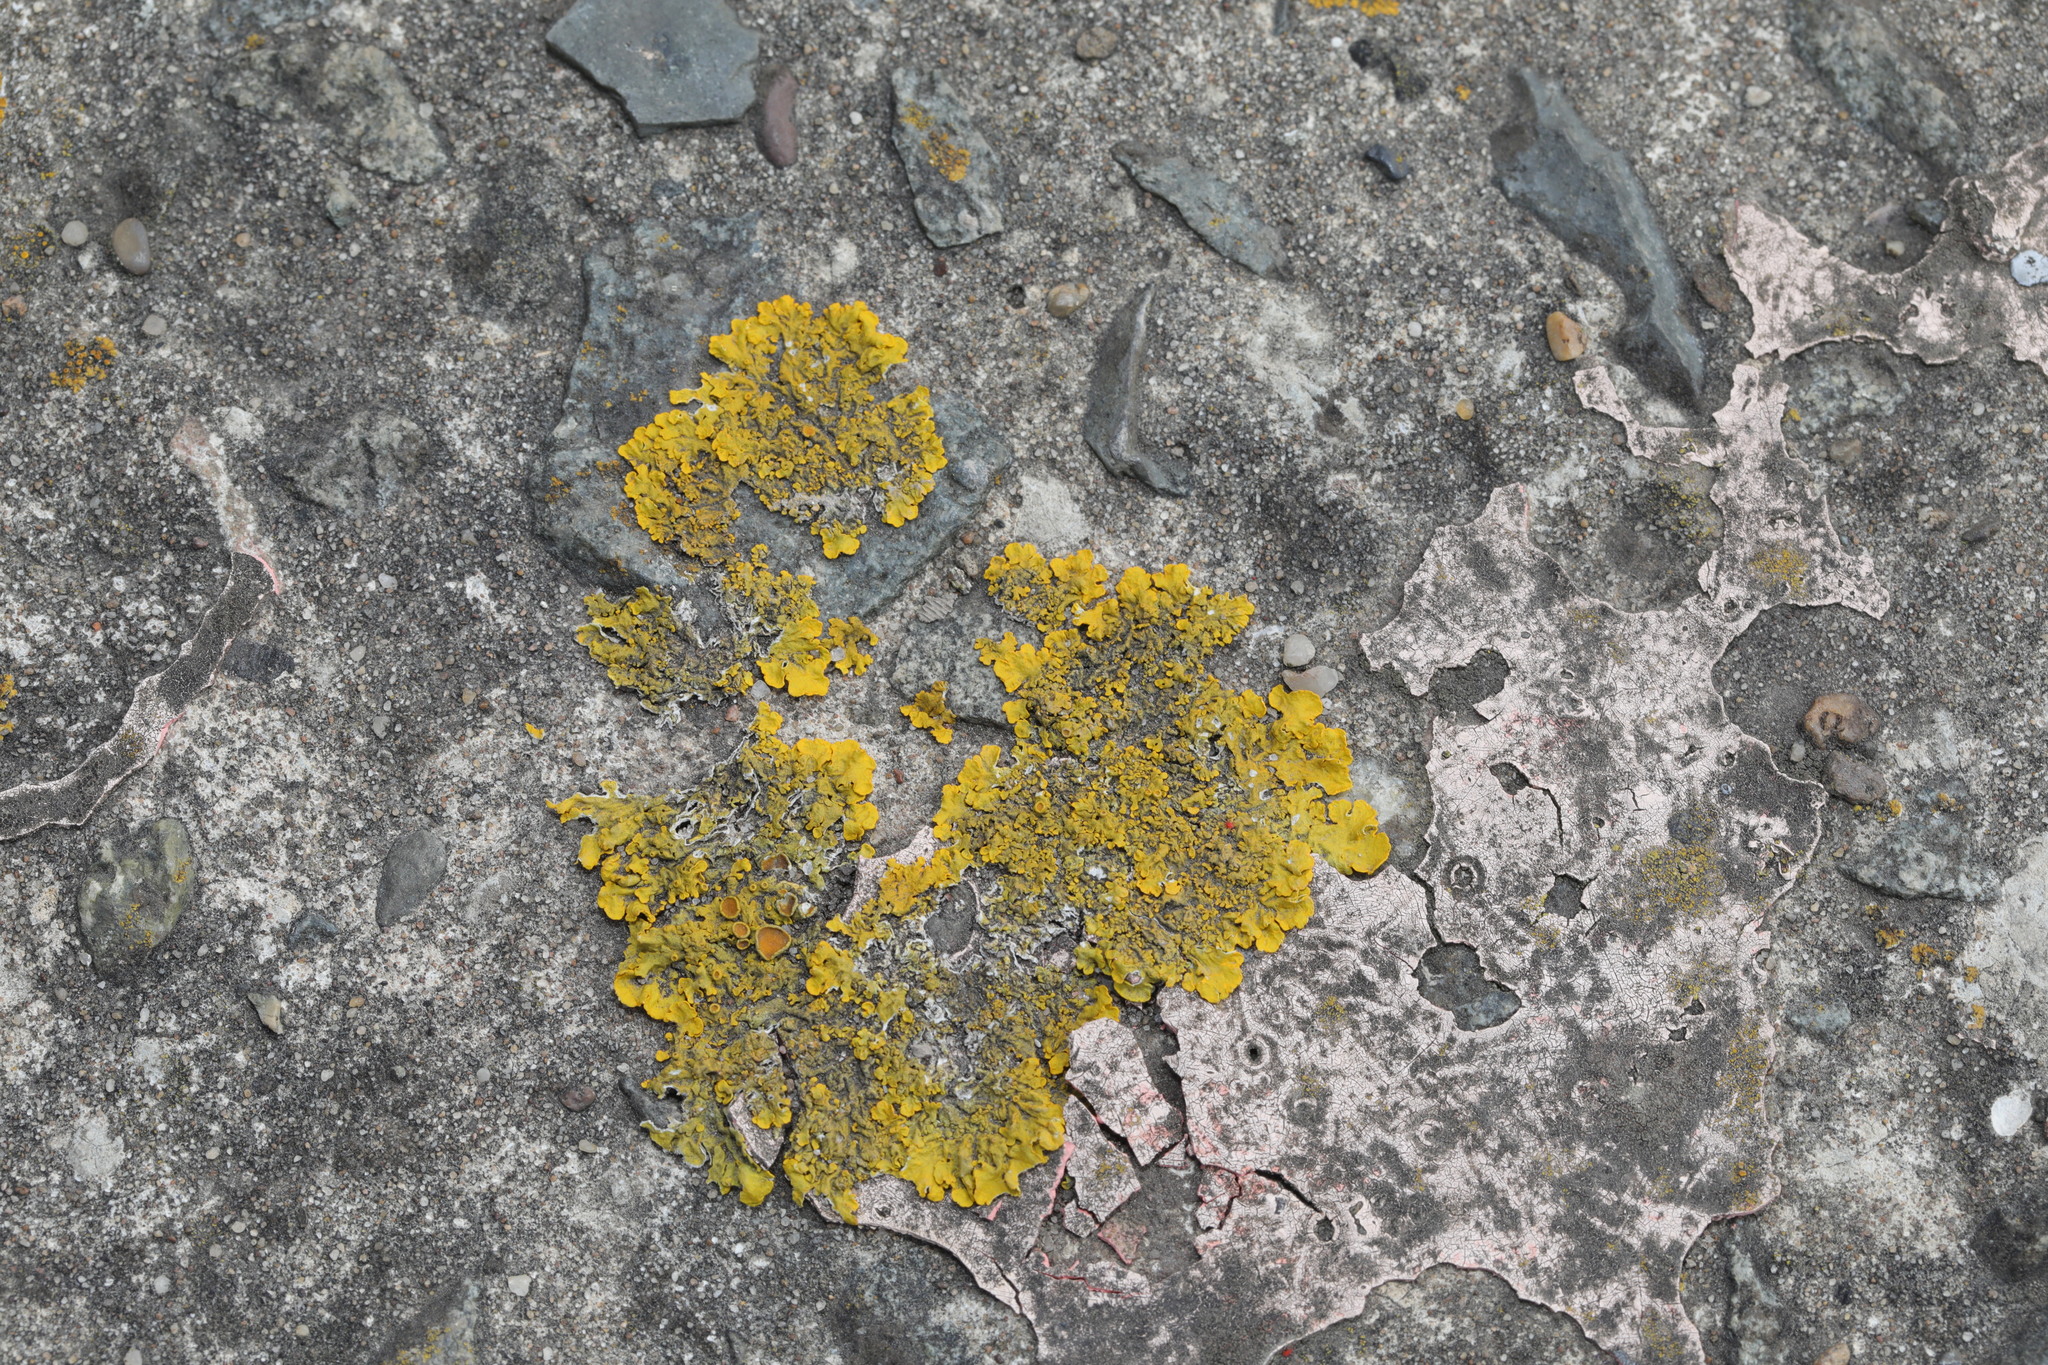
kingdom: Fungi
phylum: Ascomycota
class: Lecanoromycetes
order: Teloschistales
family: Teloschistaceae
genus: Xanthoria
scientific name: Xanthoria parietina
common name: Common orange lichen
